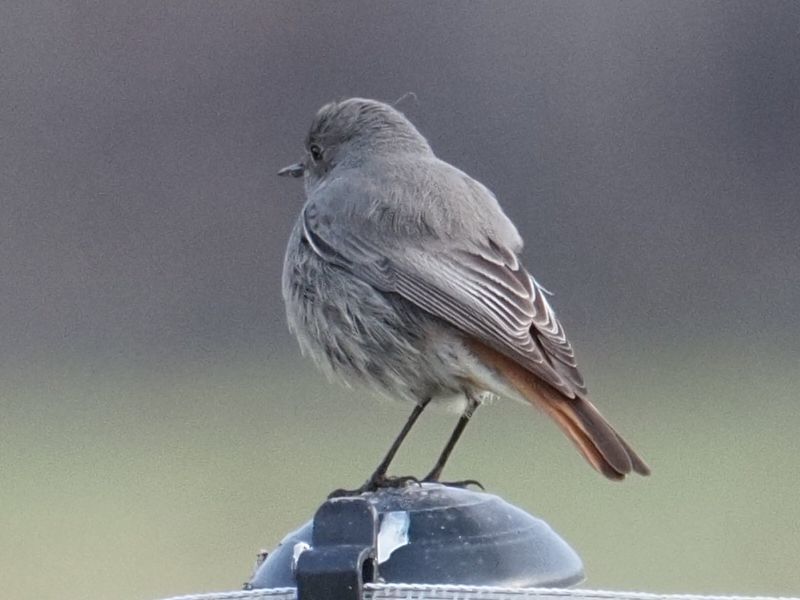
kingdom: Animalia
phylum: Chordata
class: Aves
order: Passeriformes
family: Muscicapidae
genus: Phoenicurus
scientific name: Phoenicurus ochruros
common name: Black redstart
